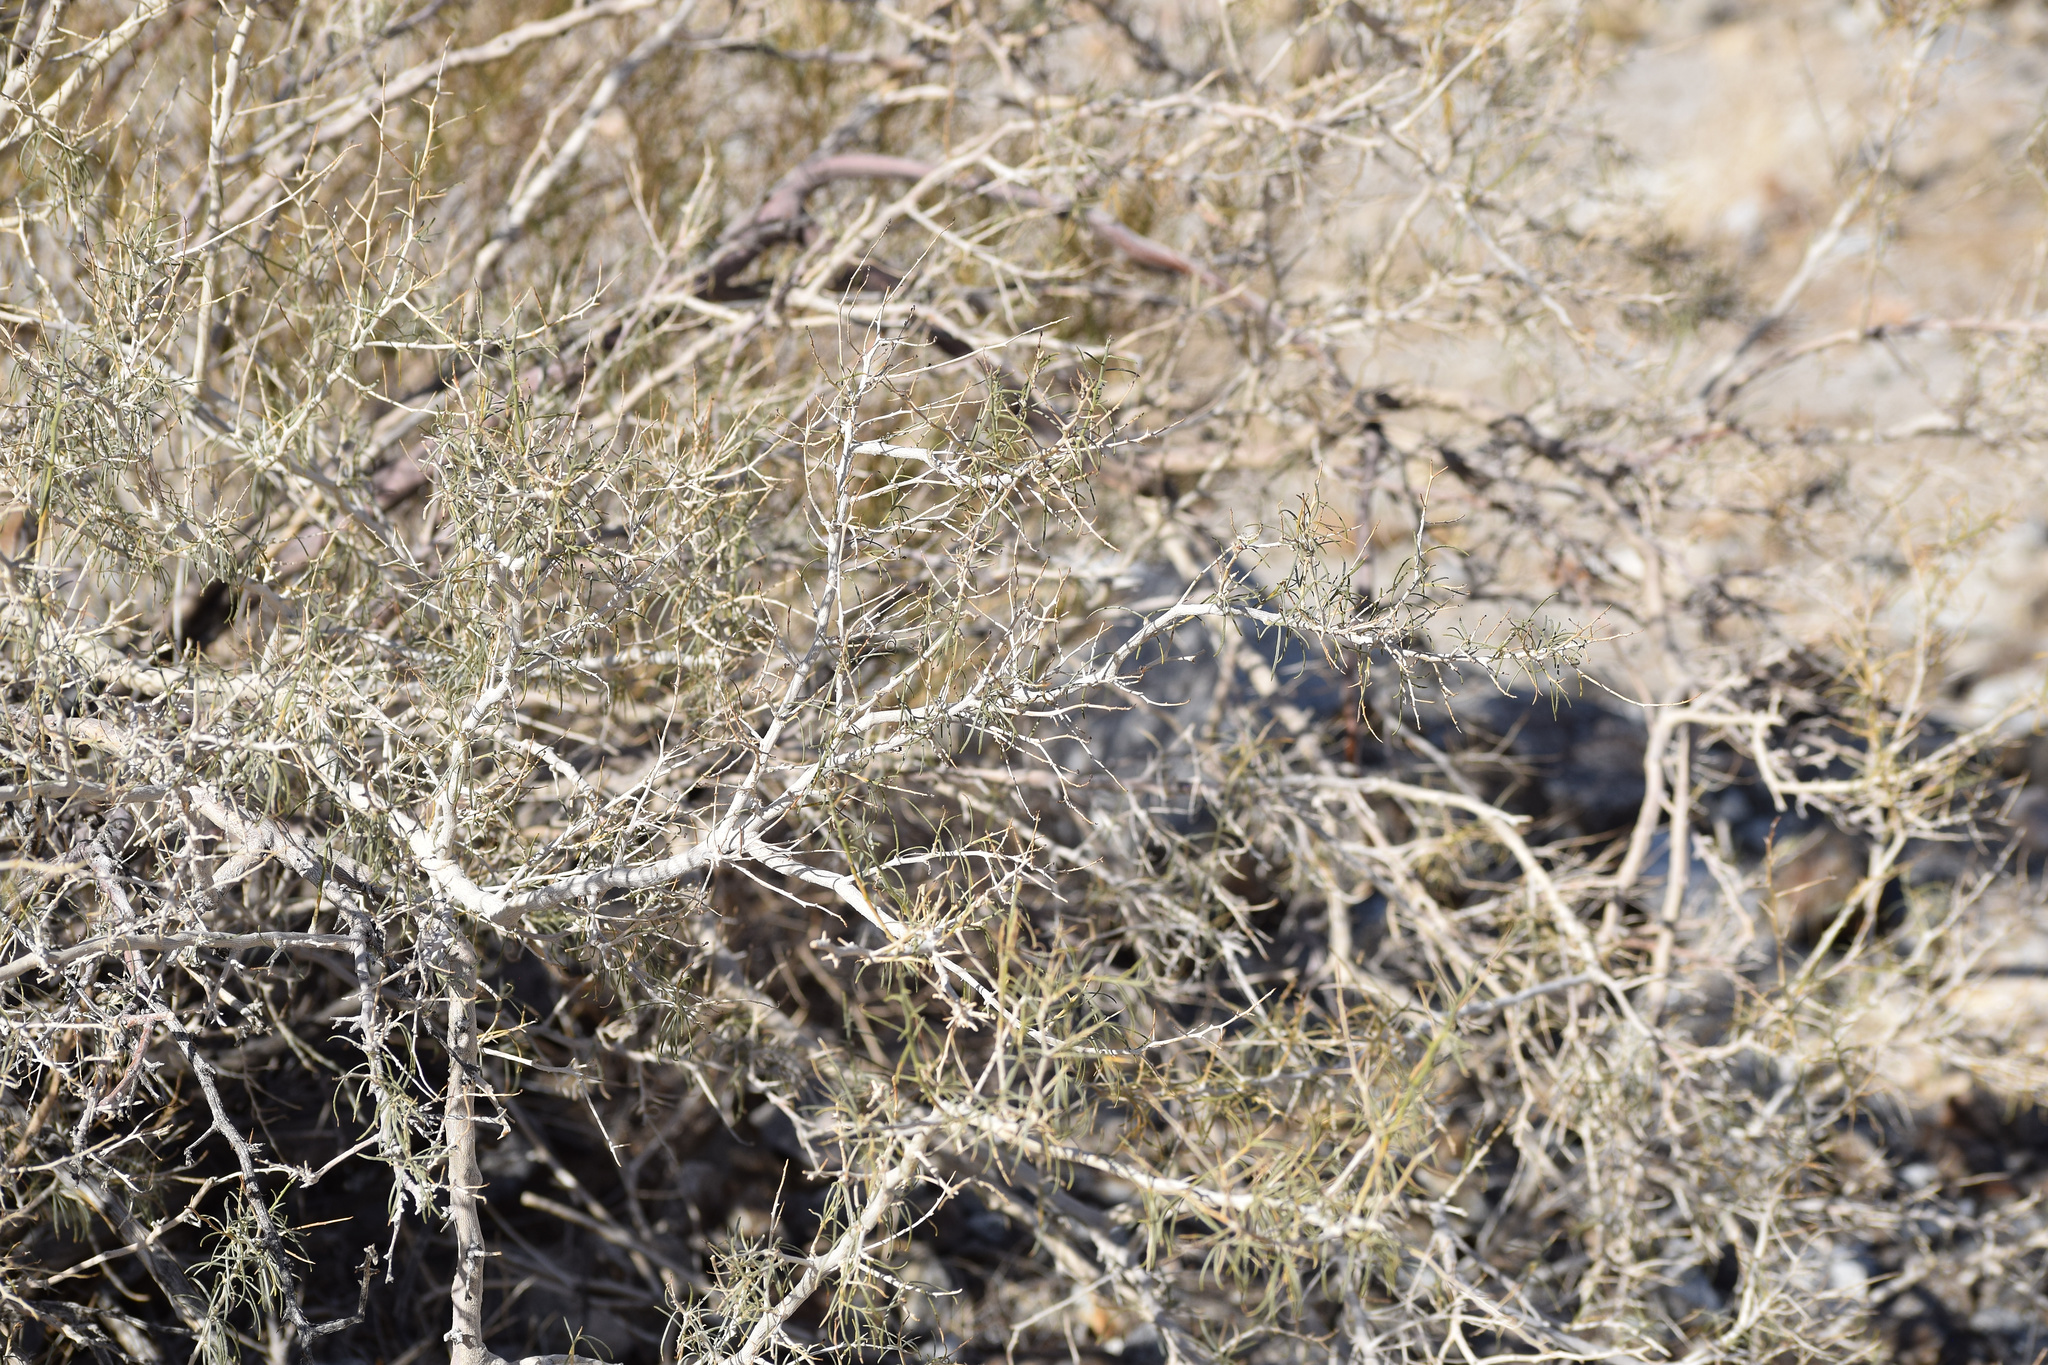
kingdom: Plantae
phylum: Tracheophyta
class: Magnoliopsida
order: Fabales
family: Fabaceae
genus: Psorothamnus
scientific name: Psorothamnus schottii
